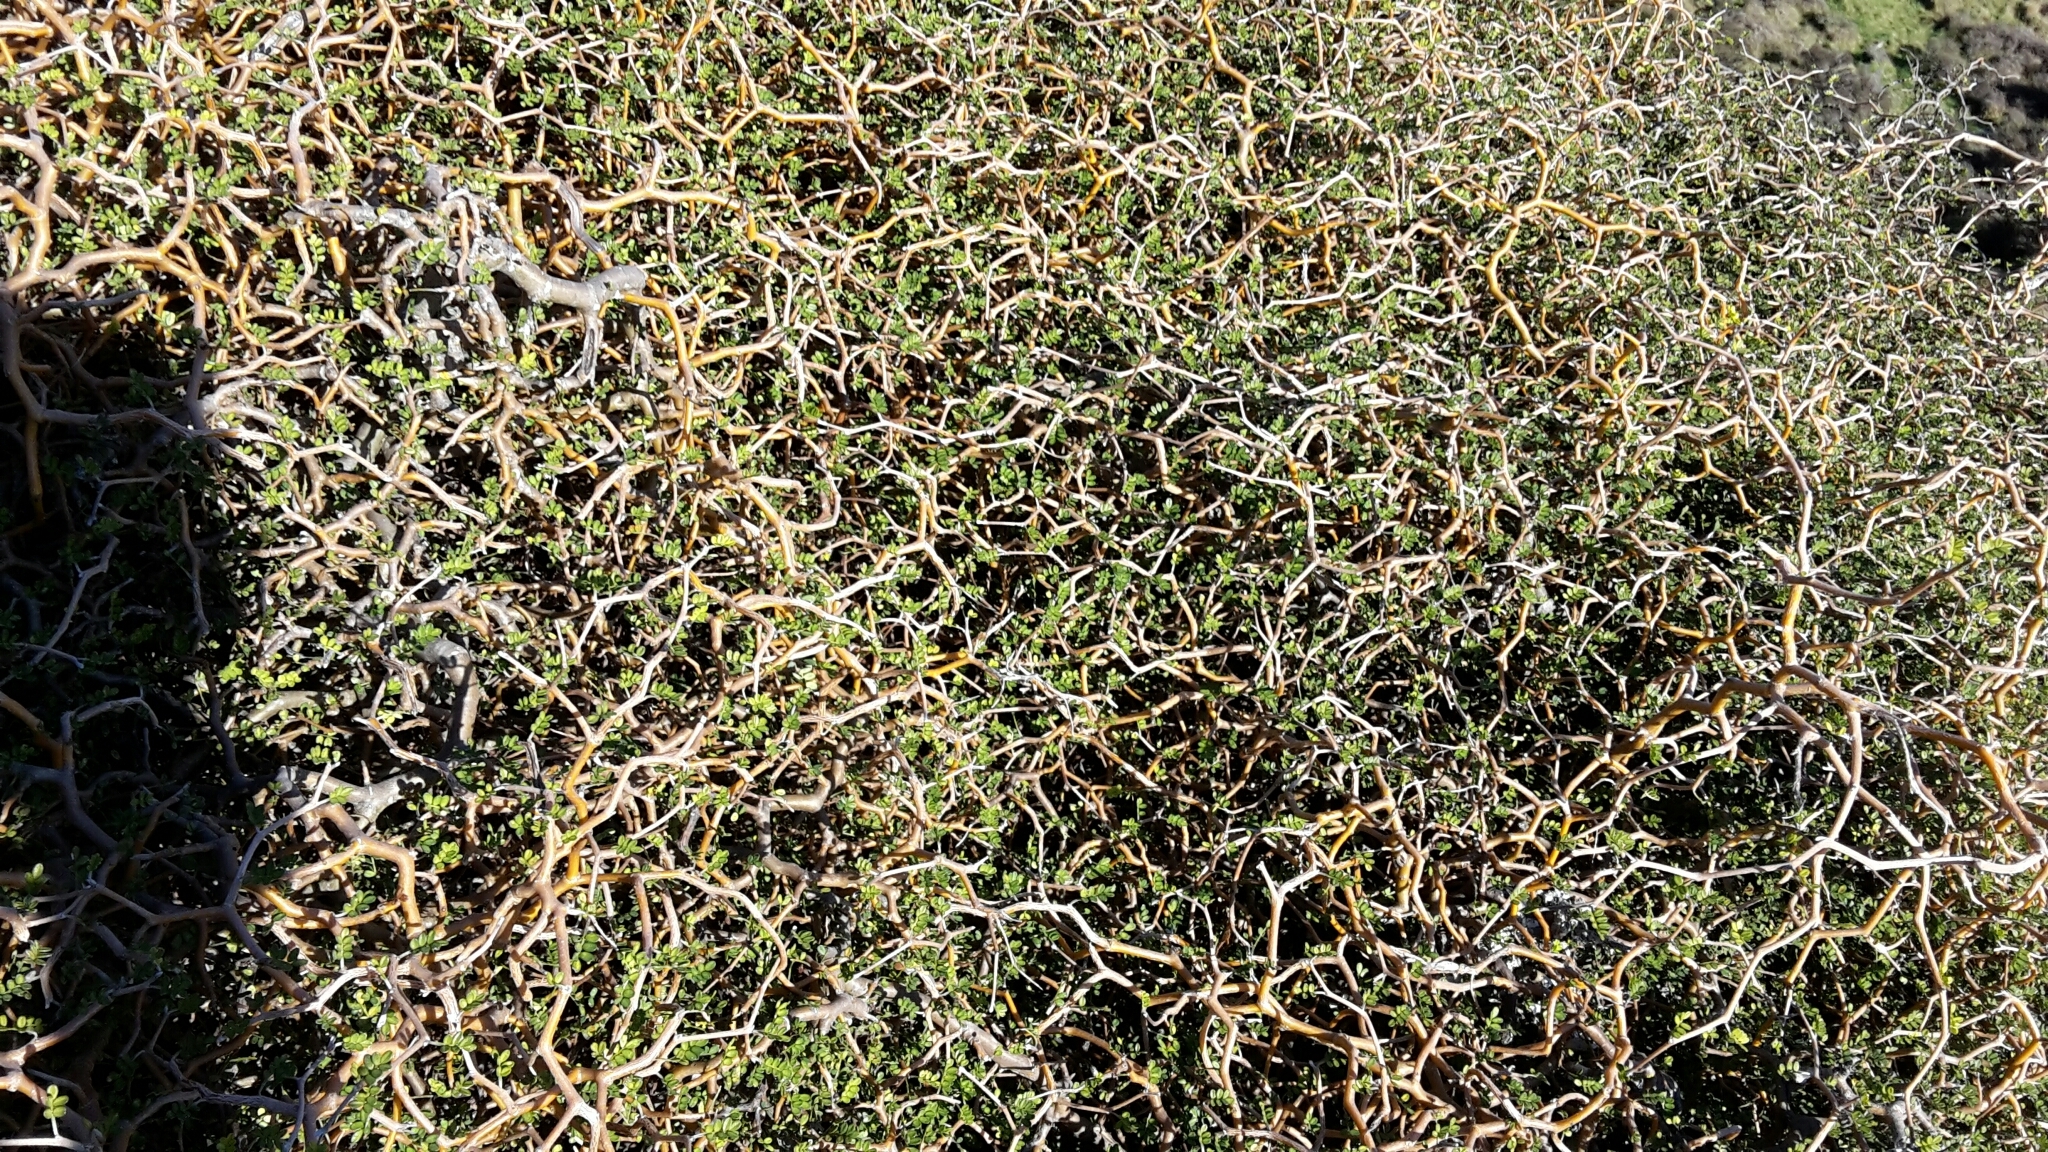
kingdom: Plantae
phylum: Tracheophyta
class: Magnoliopsida
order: Fabales
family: Fabaceae
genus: Sophora
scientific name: Sophora prostrata
